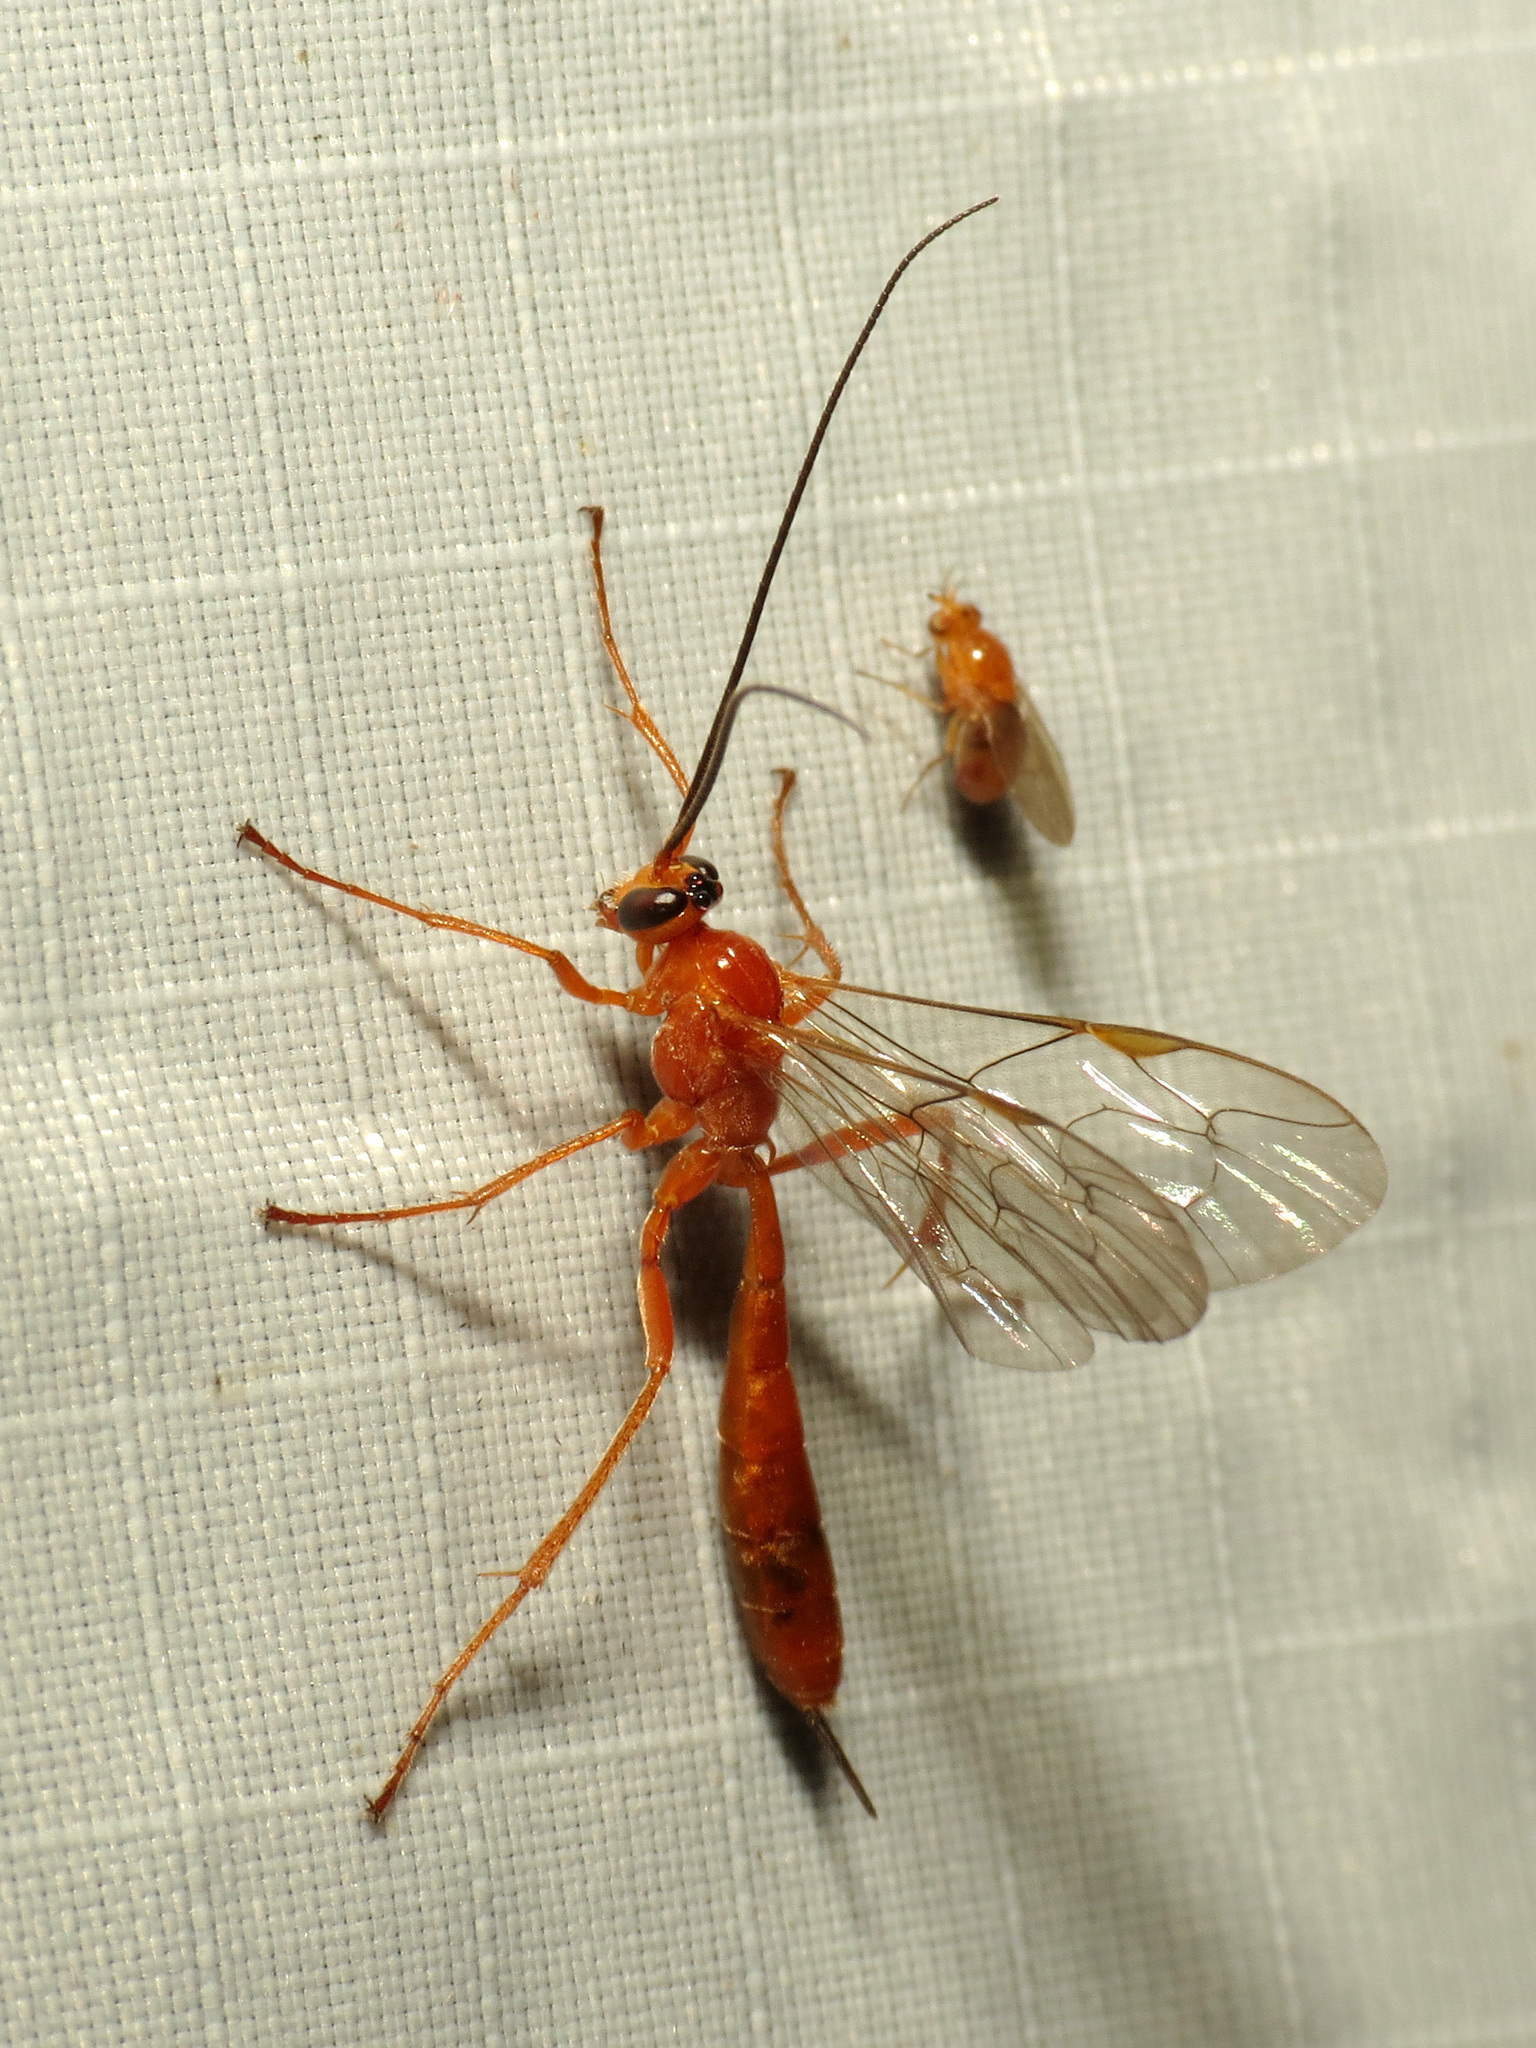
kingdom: Animalia
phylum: Arthropoda
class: Insecta
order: Hymenoptera
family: Ichneumonidae
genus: Netelia
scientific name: Netelia
